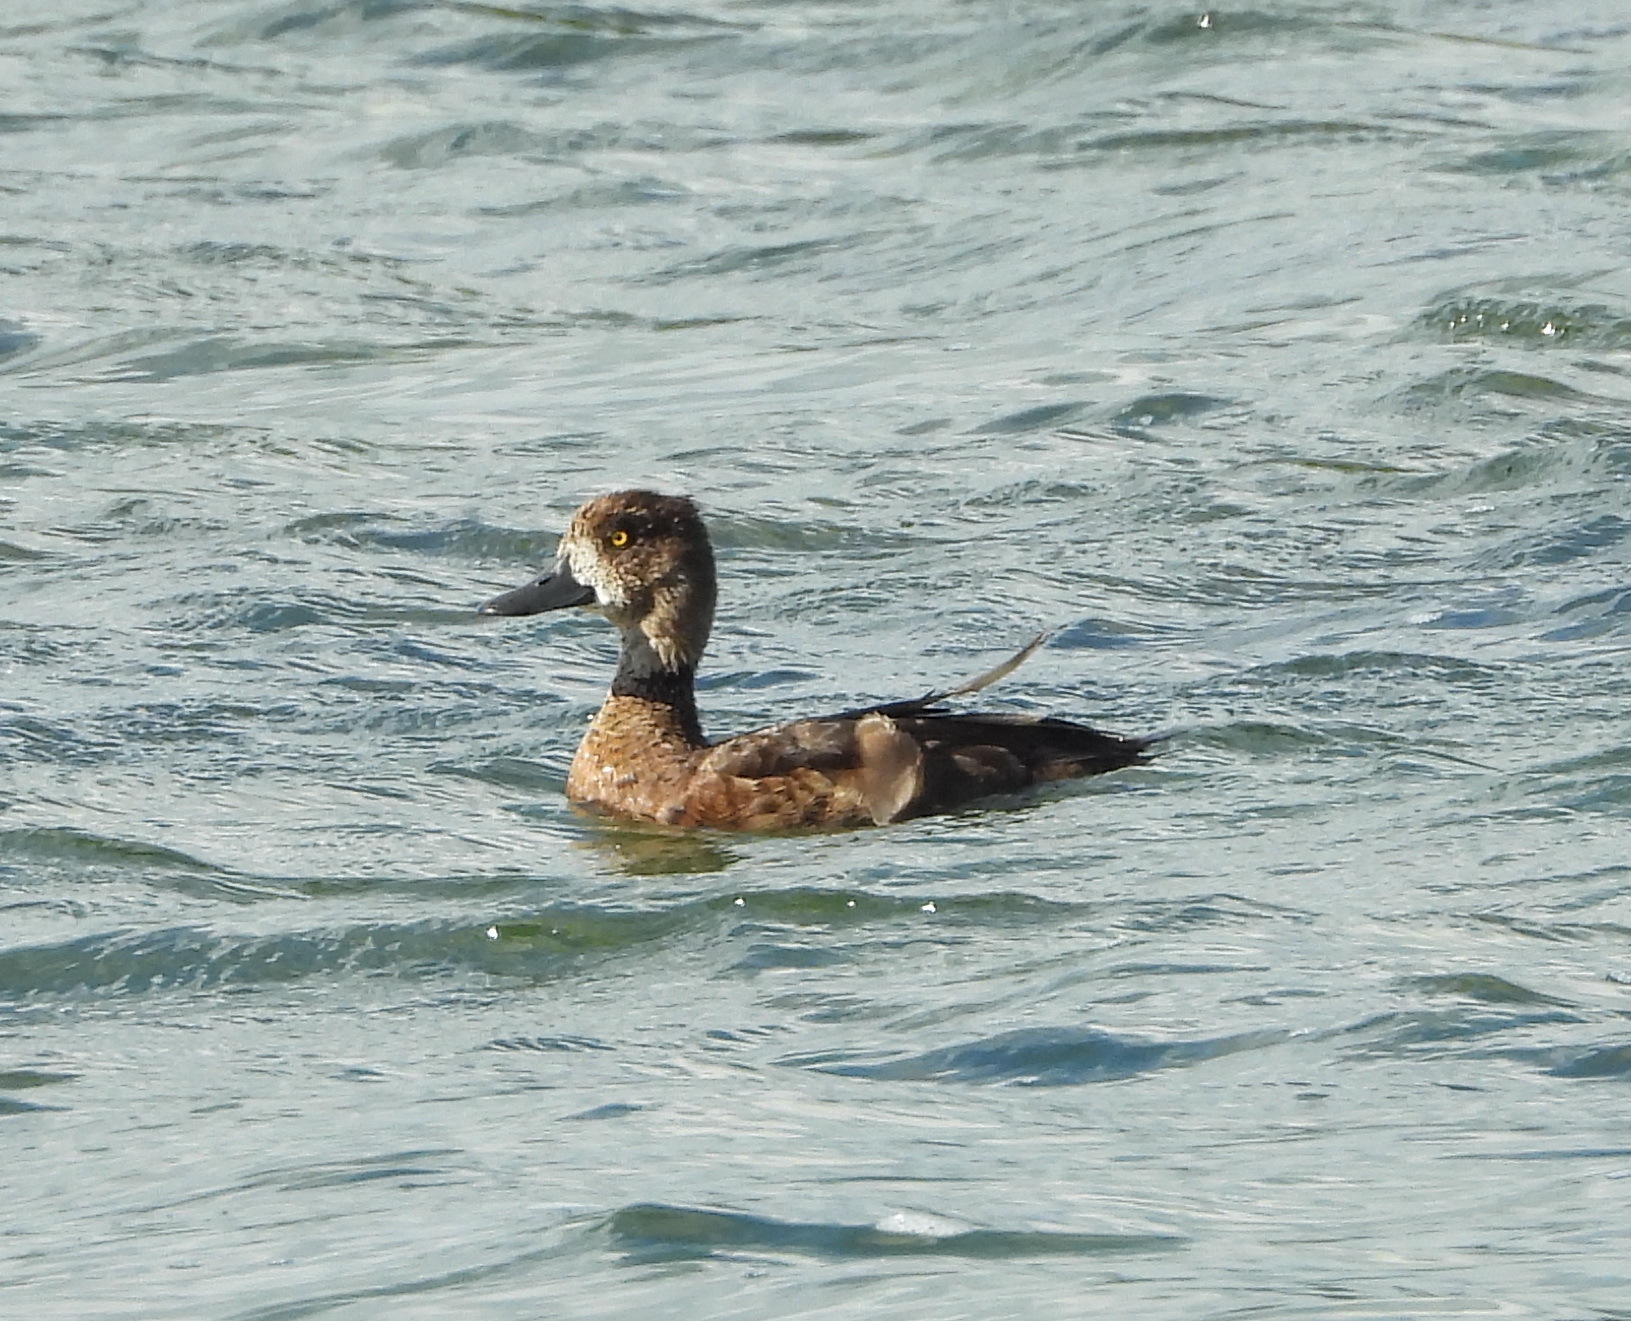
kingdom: Animalia
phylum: Chordata
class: Aves
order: Anseriformes
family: Anatidae
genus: Aythya
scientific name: Aythya fuligula
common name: Tufted duck
